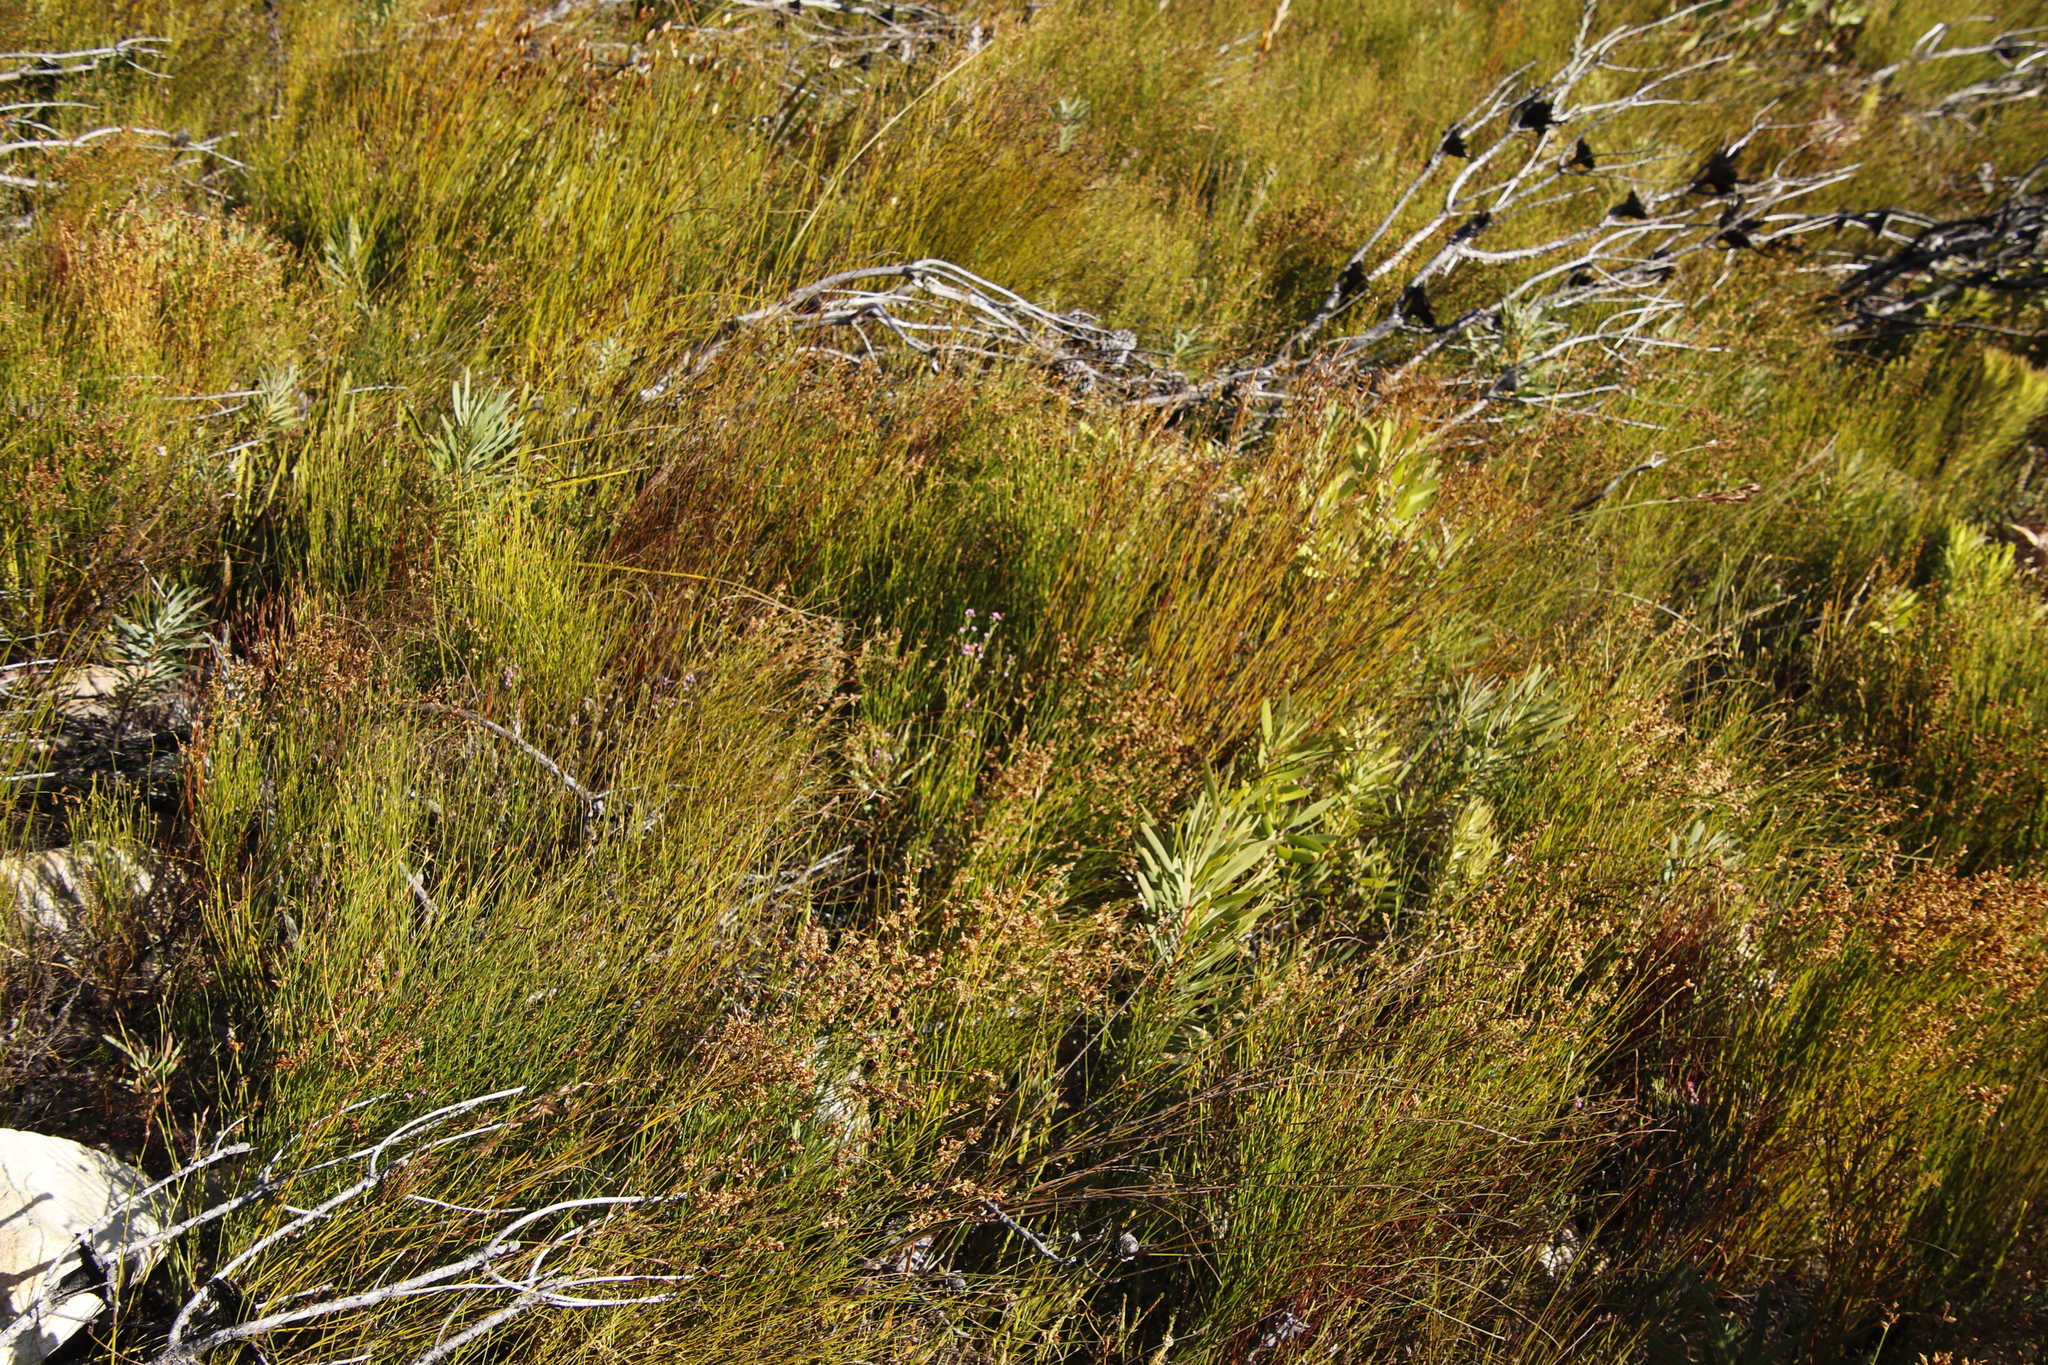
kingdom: Plantae
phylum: Tracheophyta
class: Liliopsida
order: Poales
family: Restionaceae
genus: Mastersiella
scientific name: Mastersiella digitata
